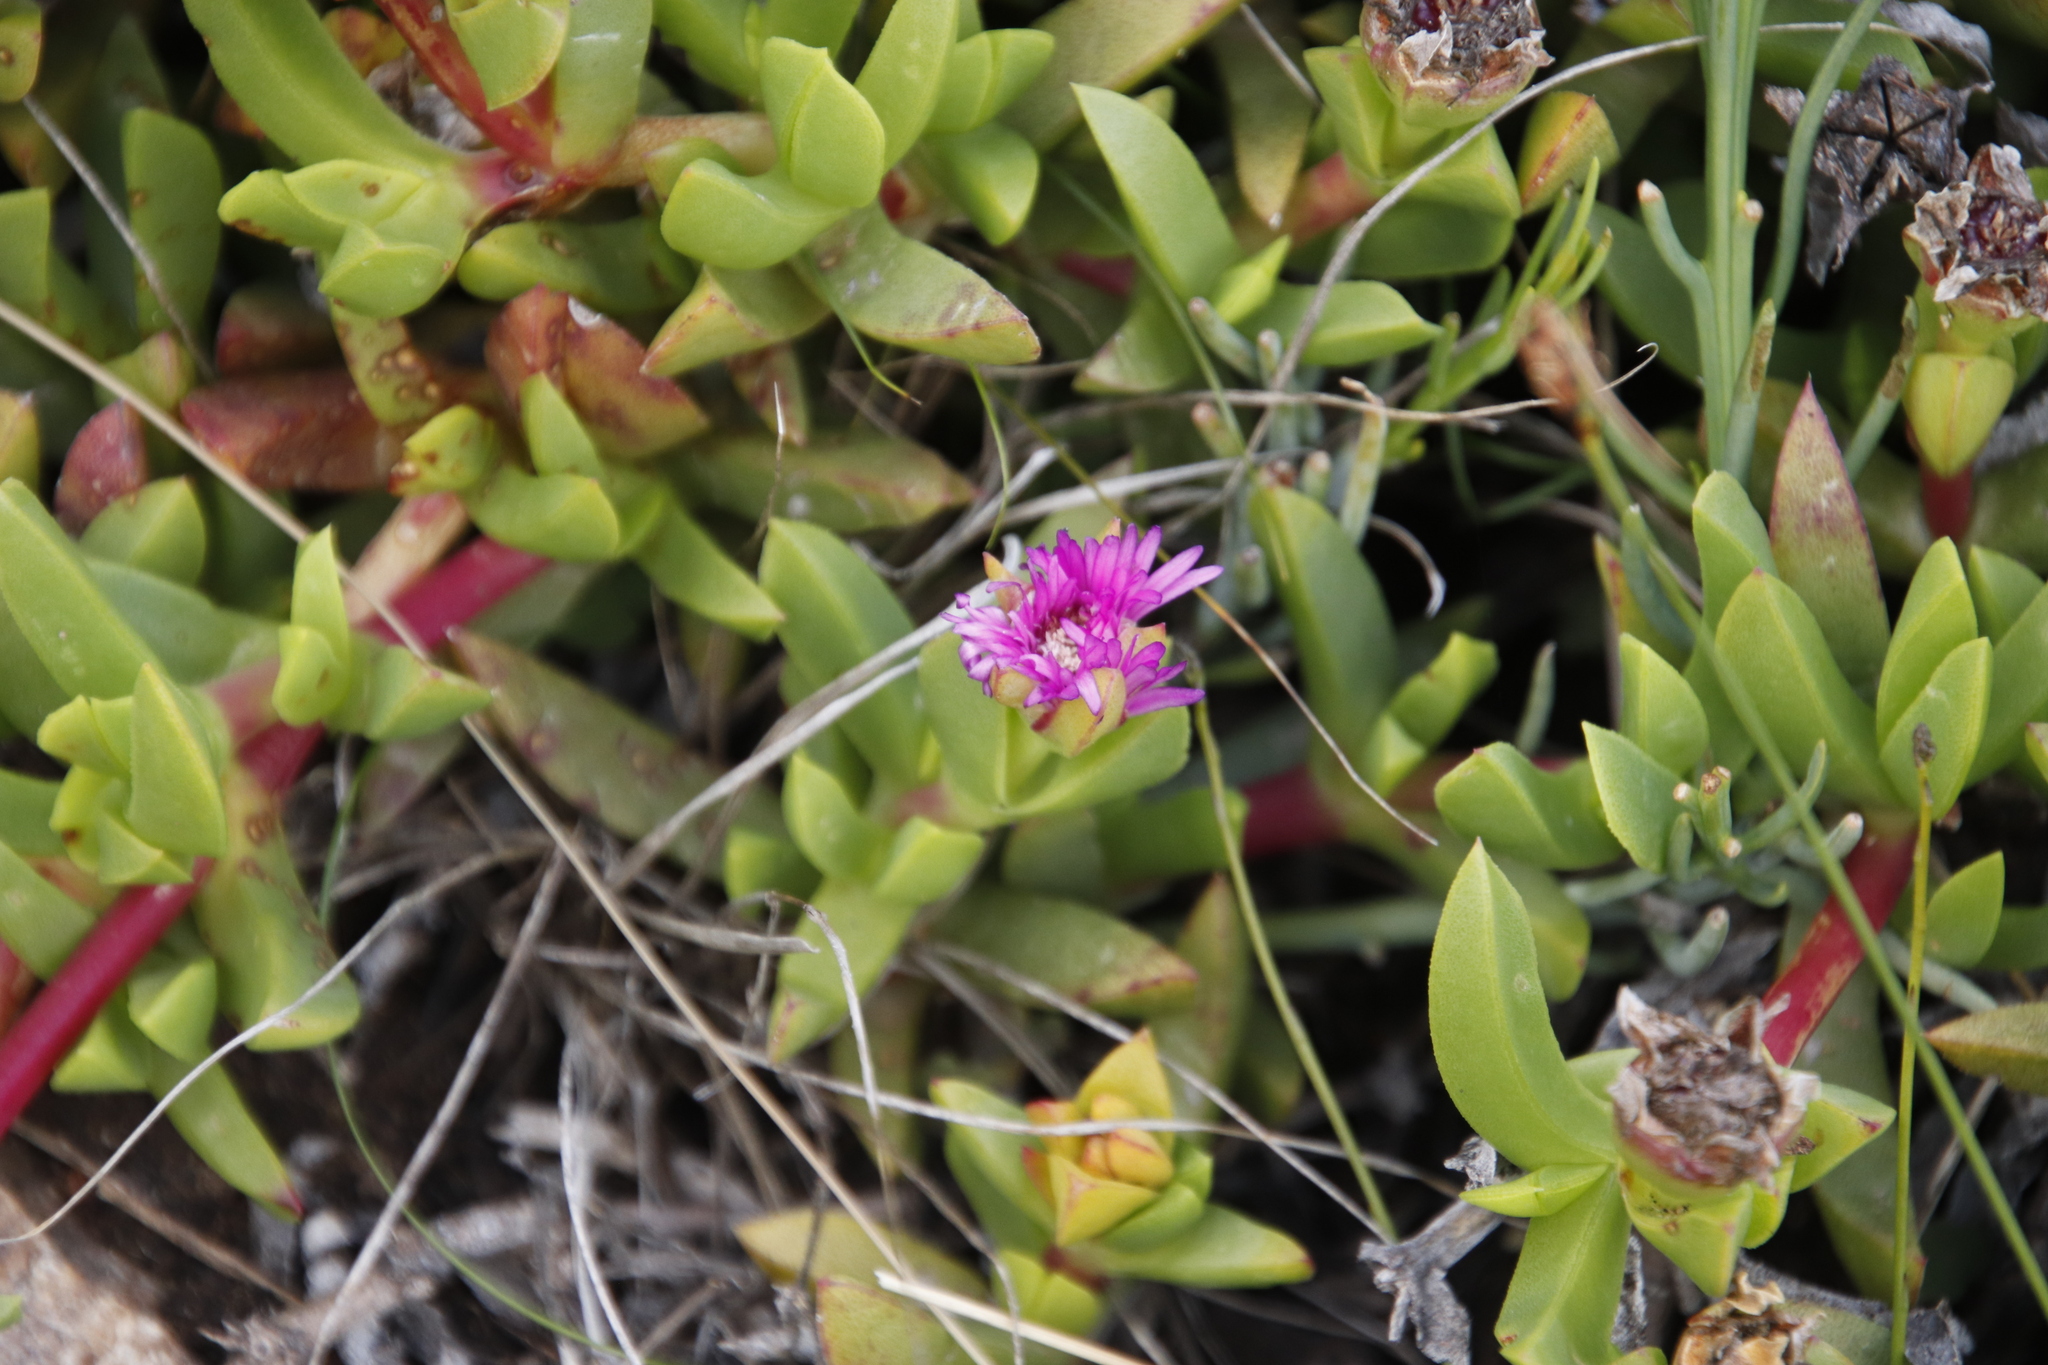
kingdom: Plantae
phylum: Tracheophyta
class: Magnoliopsida
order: Caryophyllales
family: Aizoaceae
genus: Amphibolia
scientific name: Amphibolia laevis
